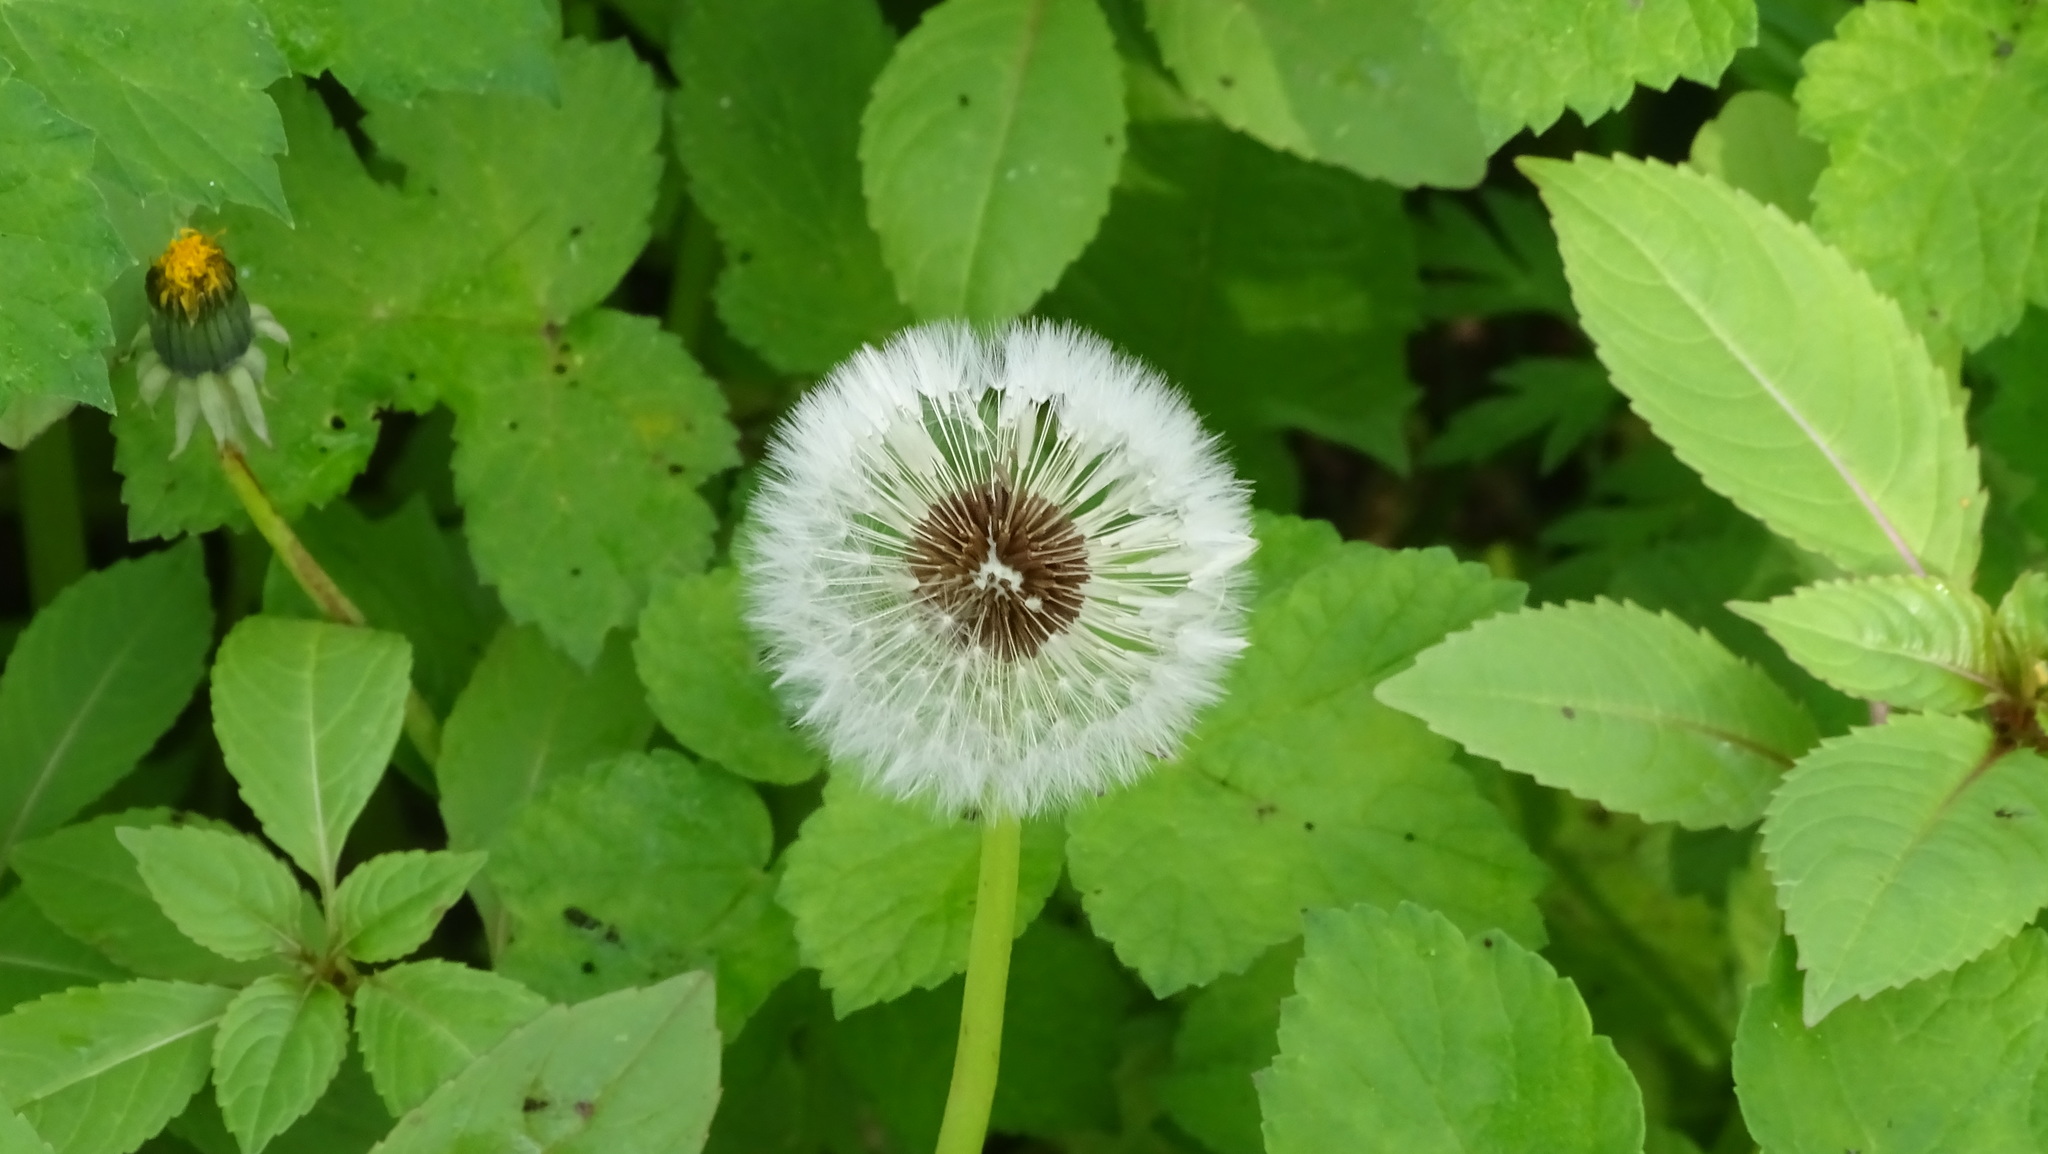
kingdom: Plantae
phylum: Tracheophyta
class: Magnoliopsida
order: Asterales
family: Asteraceae
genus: Taraxacum
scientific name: Taraxacum officinale
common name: Common dandelion
